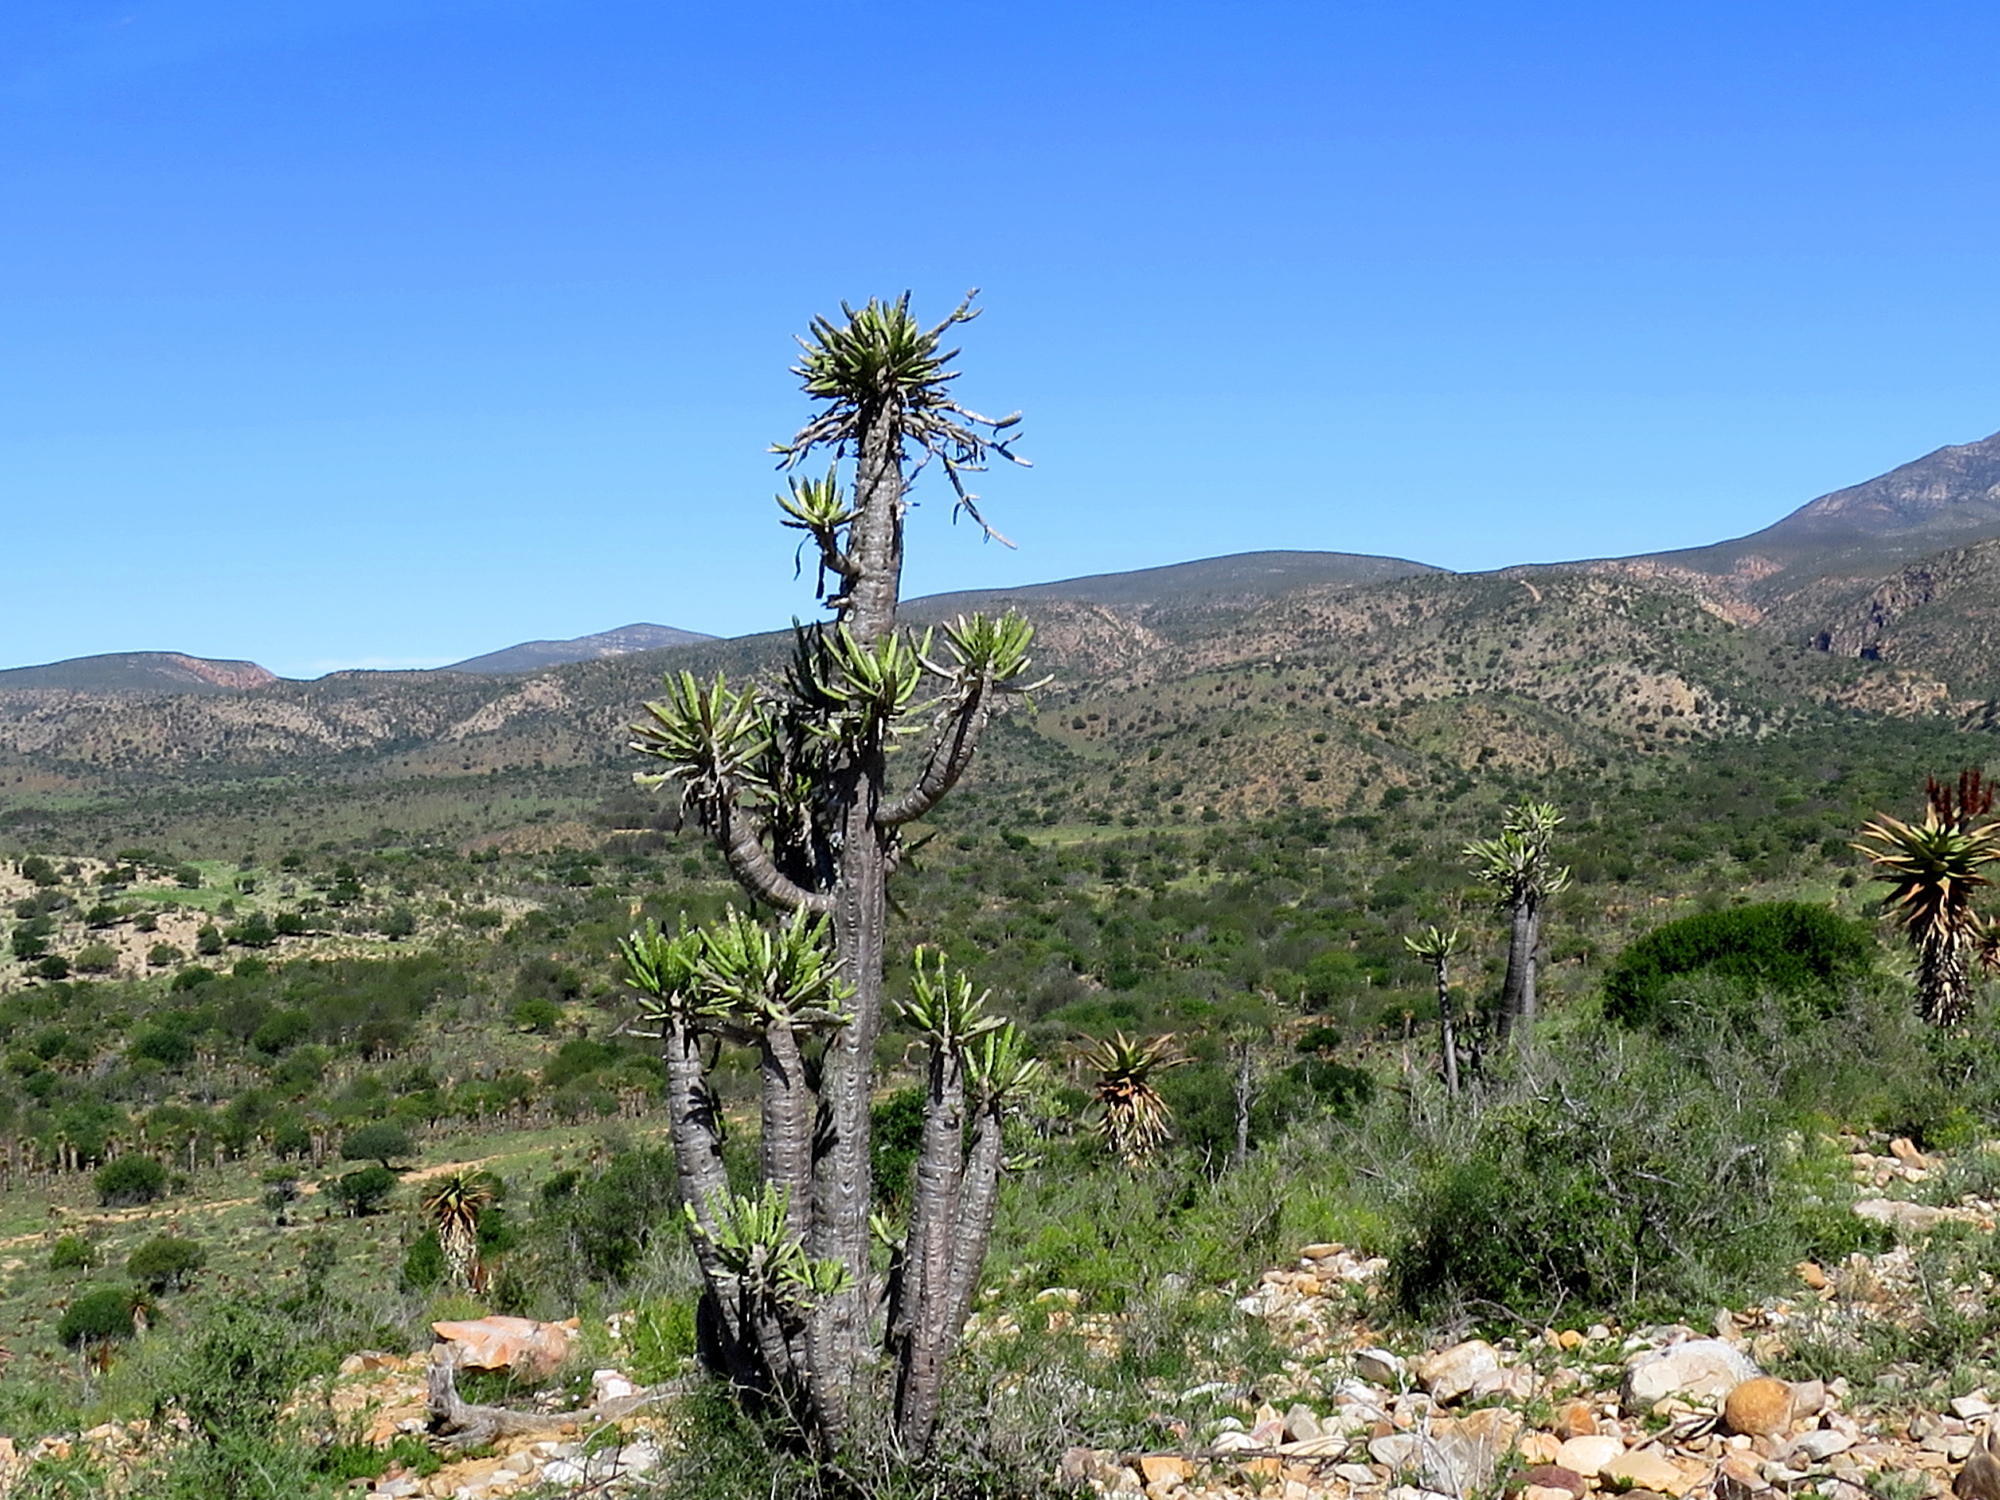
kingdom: Plantae
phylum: Tracheophyta
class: Magnoliopsida
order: Malpighiales
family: Euphorbiaceae
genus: Euphorbia
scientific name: Euphorbia grandidens
